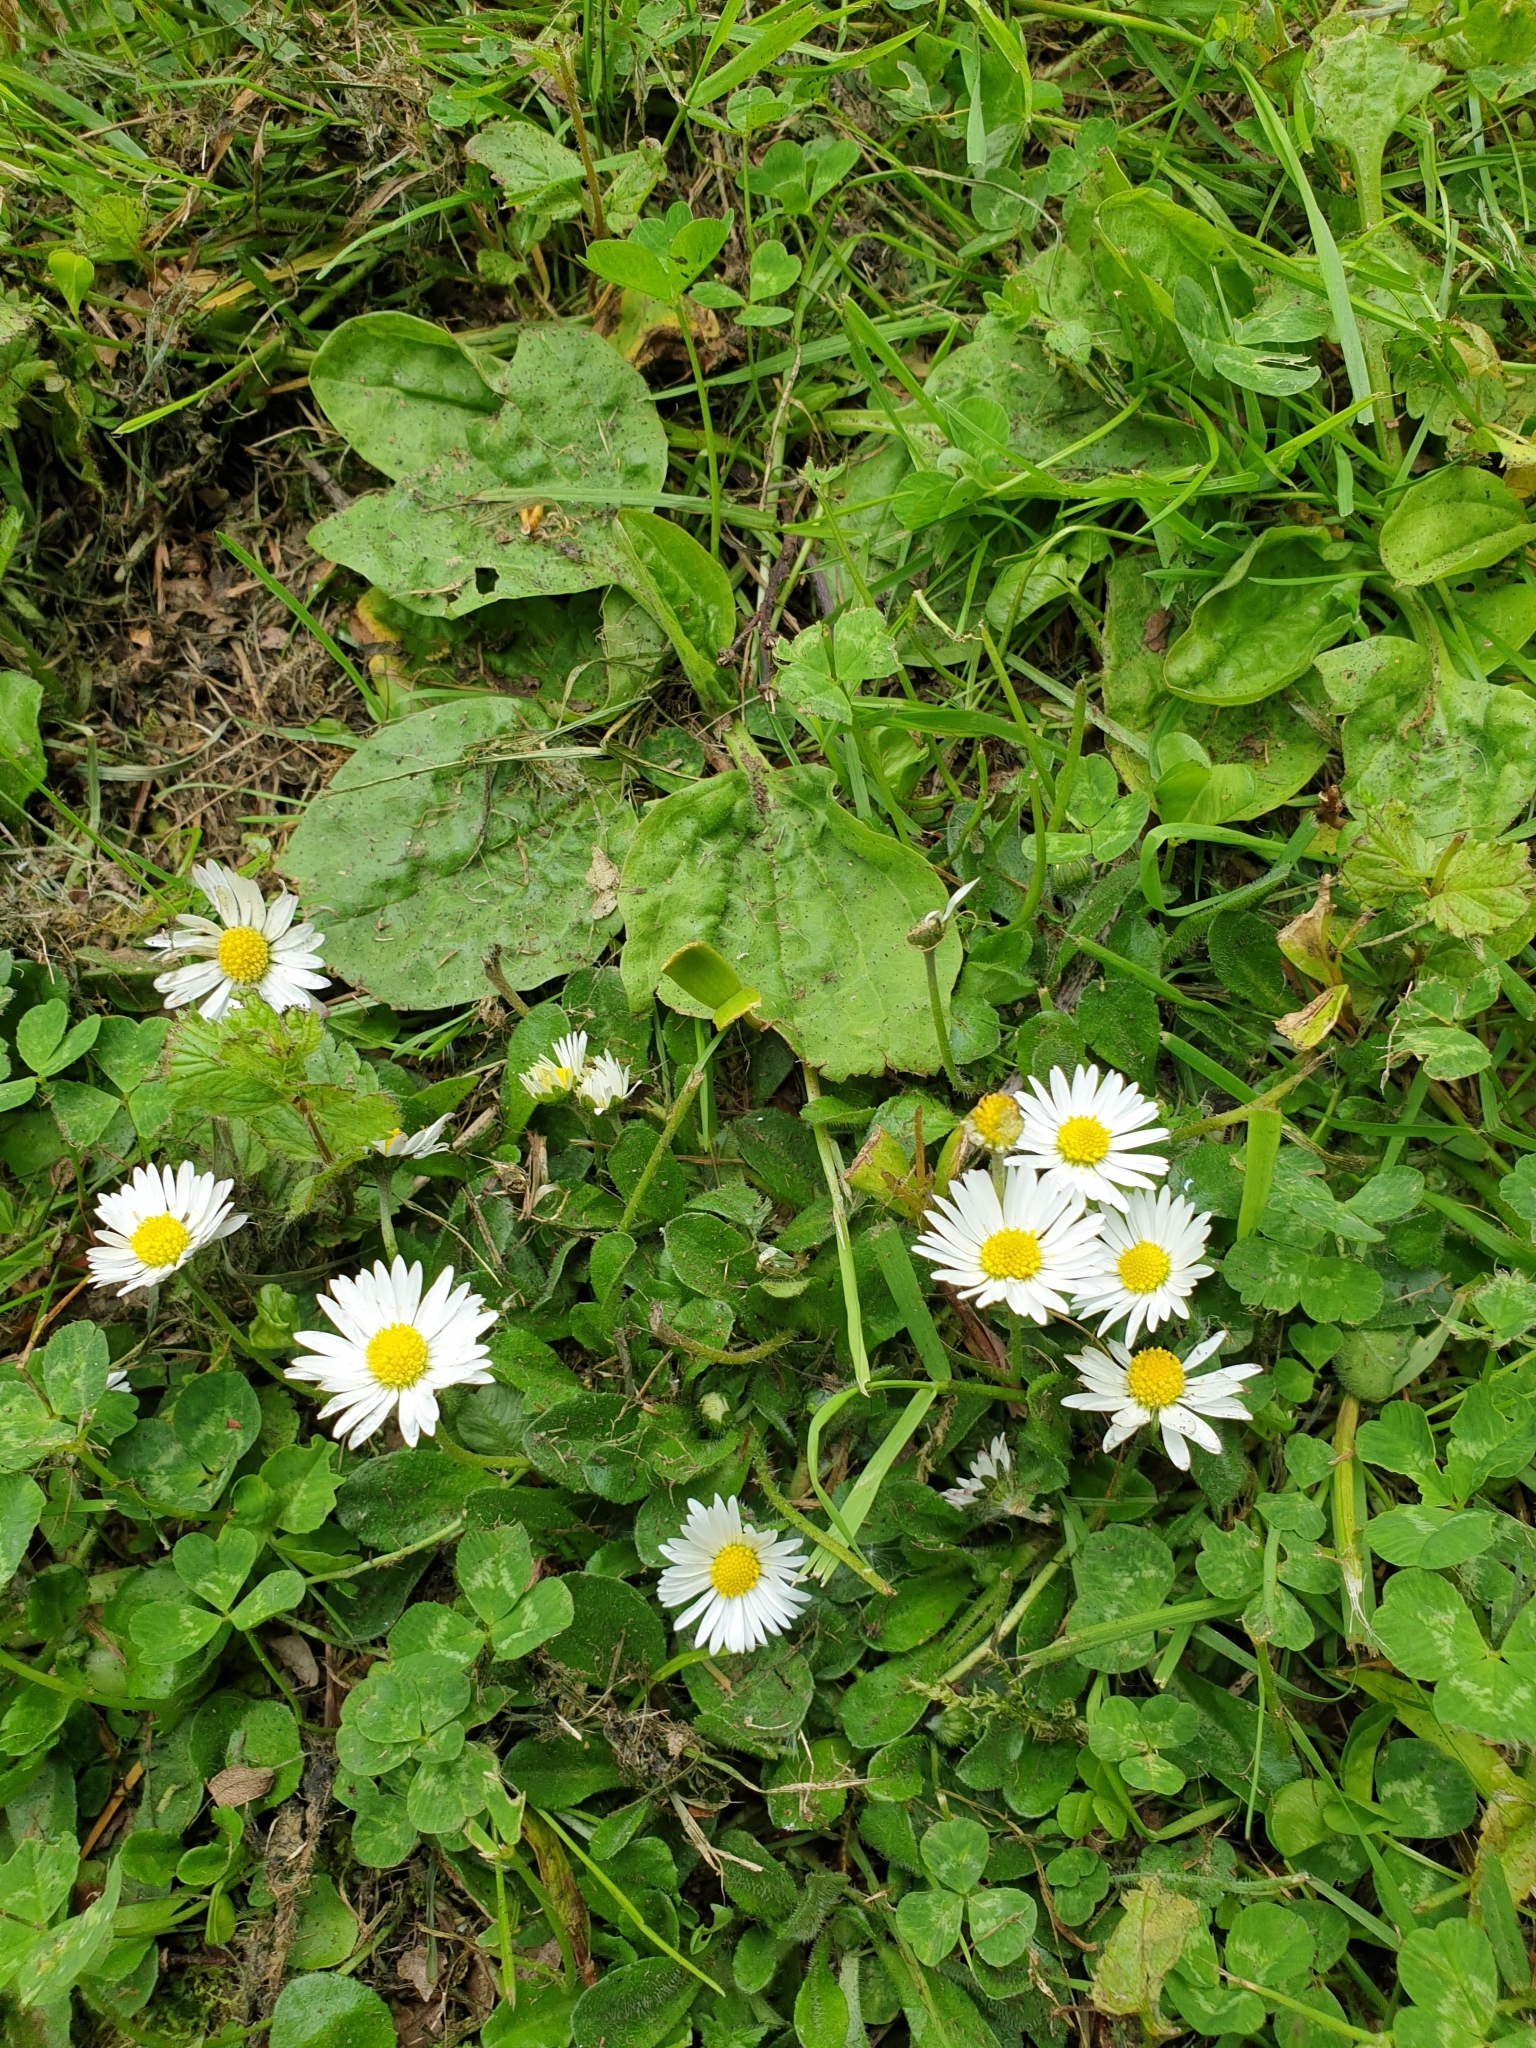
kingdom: Plantae
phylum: Tracheophyta
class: Magnoliopsida
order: Asterales
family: Asteraceae
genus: Bellis
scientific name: Bellis perennis
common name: Lawndaisy
